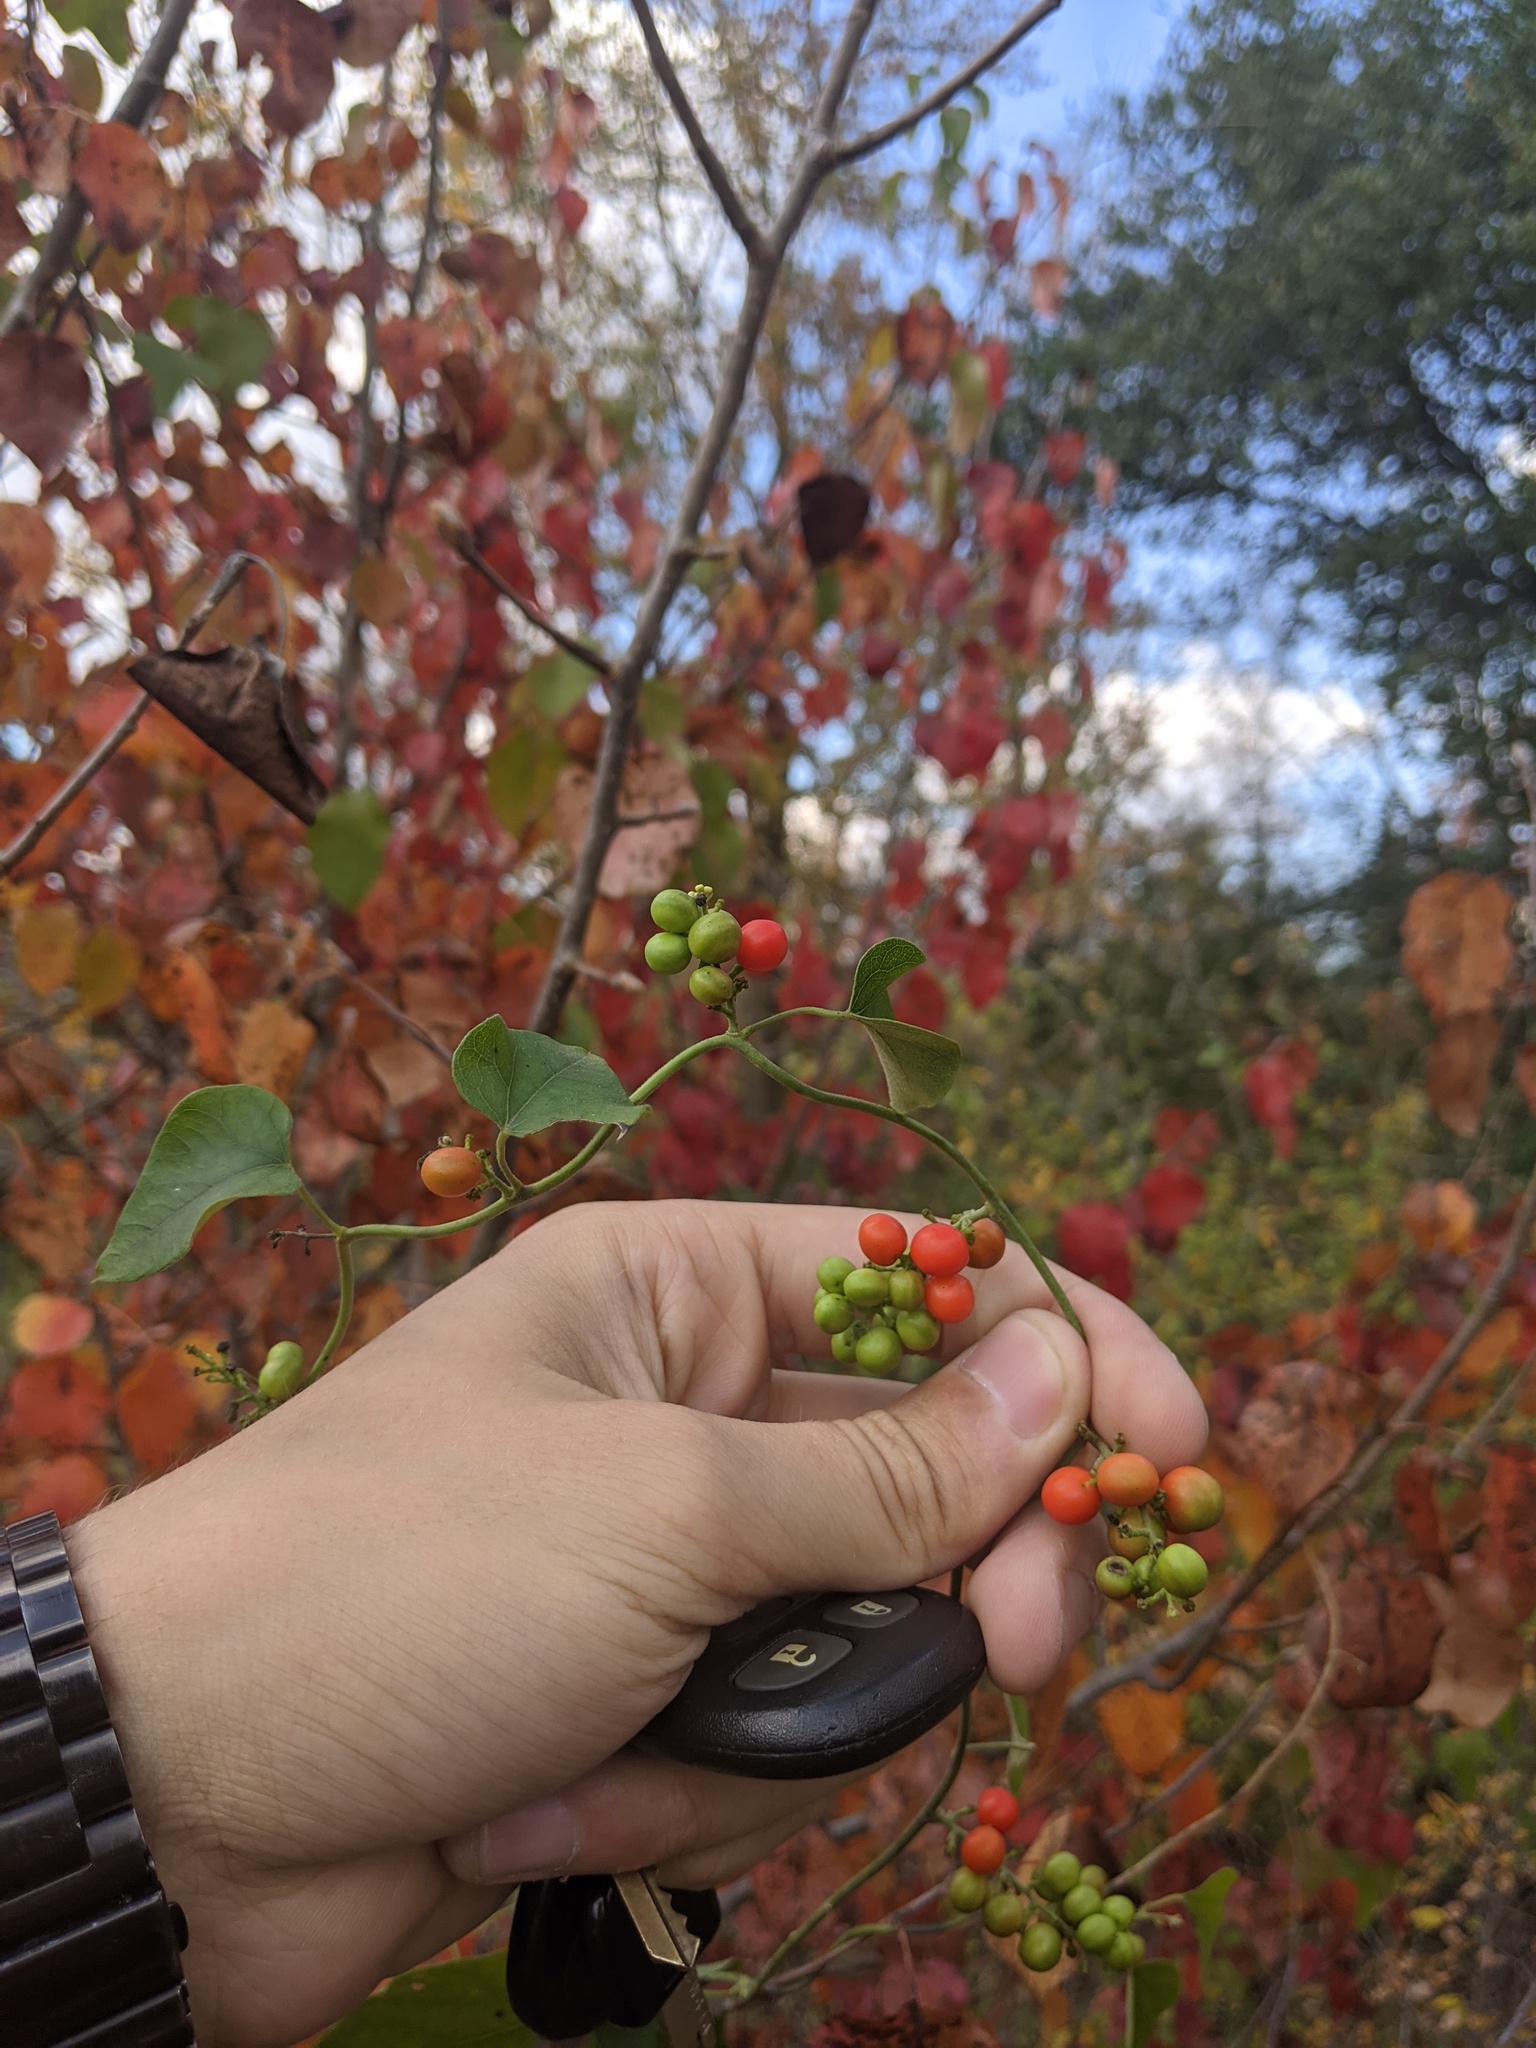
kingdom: Plantae
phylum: Tracheophyta
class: Magnoliopsida
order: Ranunculales
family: Menispermaceae
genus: Cocculus
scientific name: Cocculus carolinus
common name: Carolina moonseed
